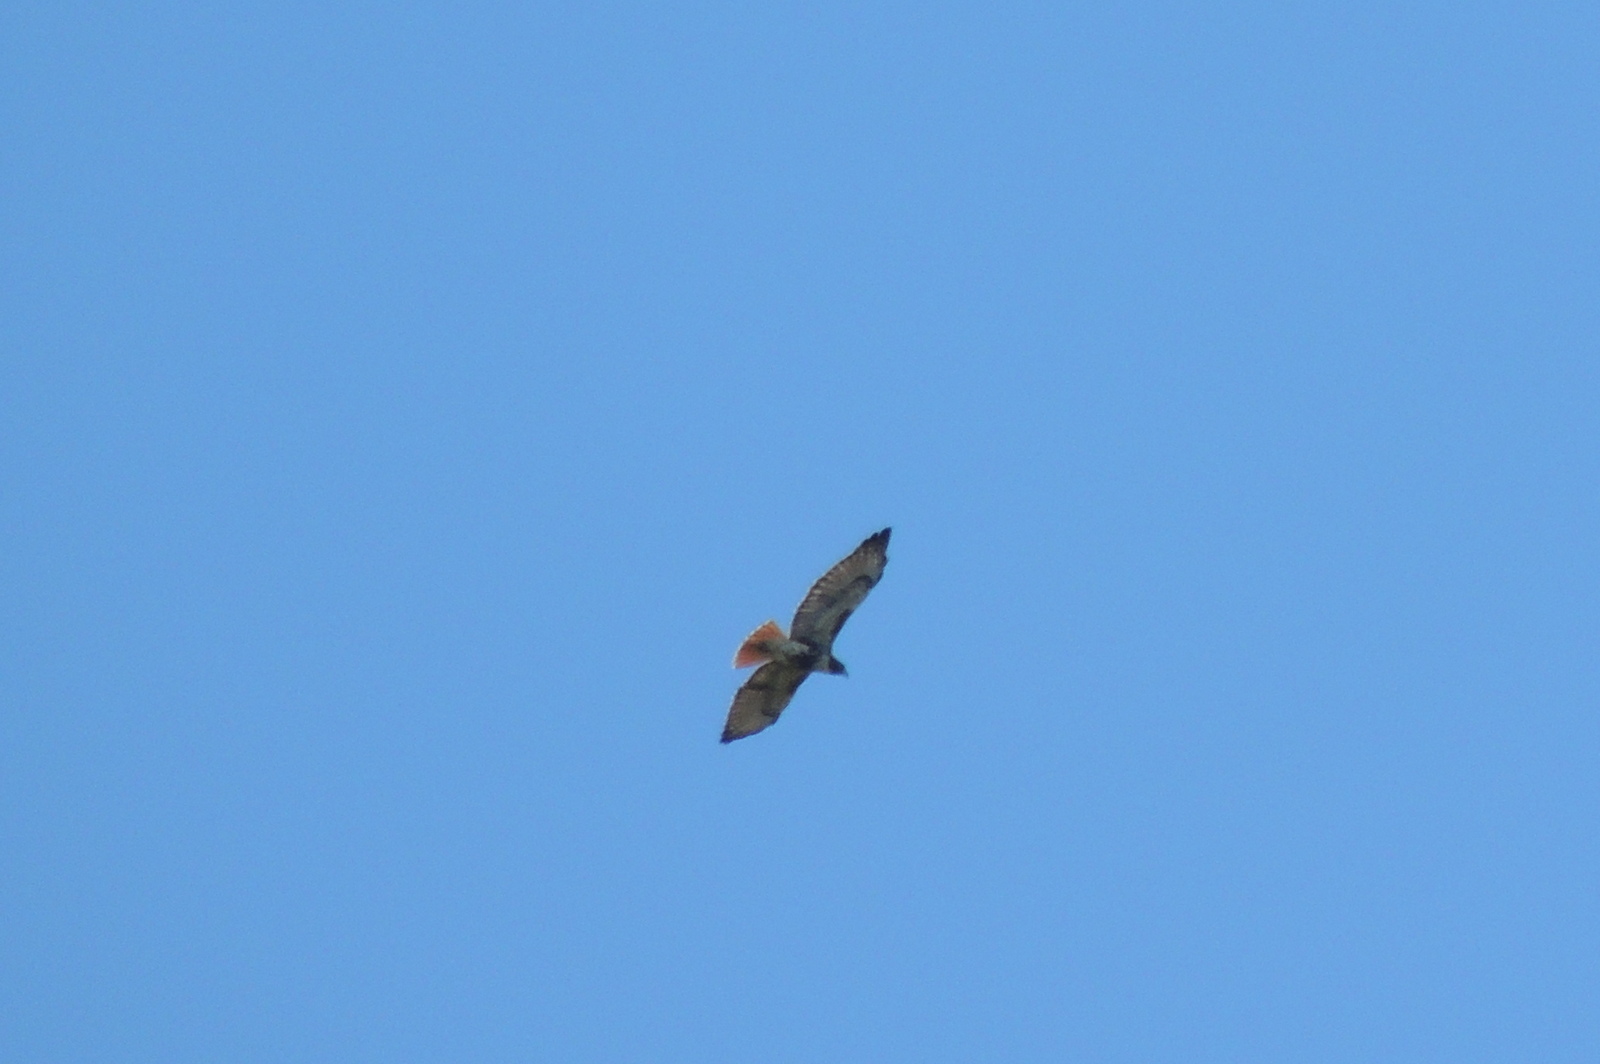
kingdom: Animalia
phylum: Chordata
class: Aves
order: Accipitriformes
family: Accipitridae
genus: Buteo
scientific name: Buteo jamaicensis
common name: Red-tailed hawk
